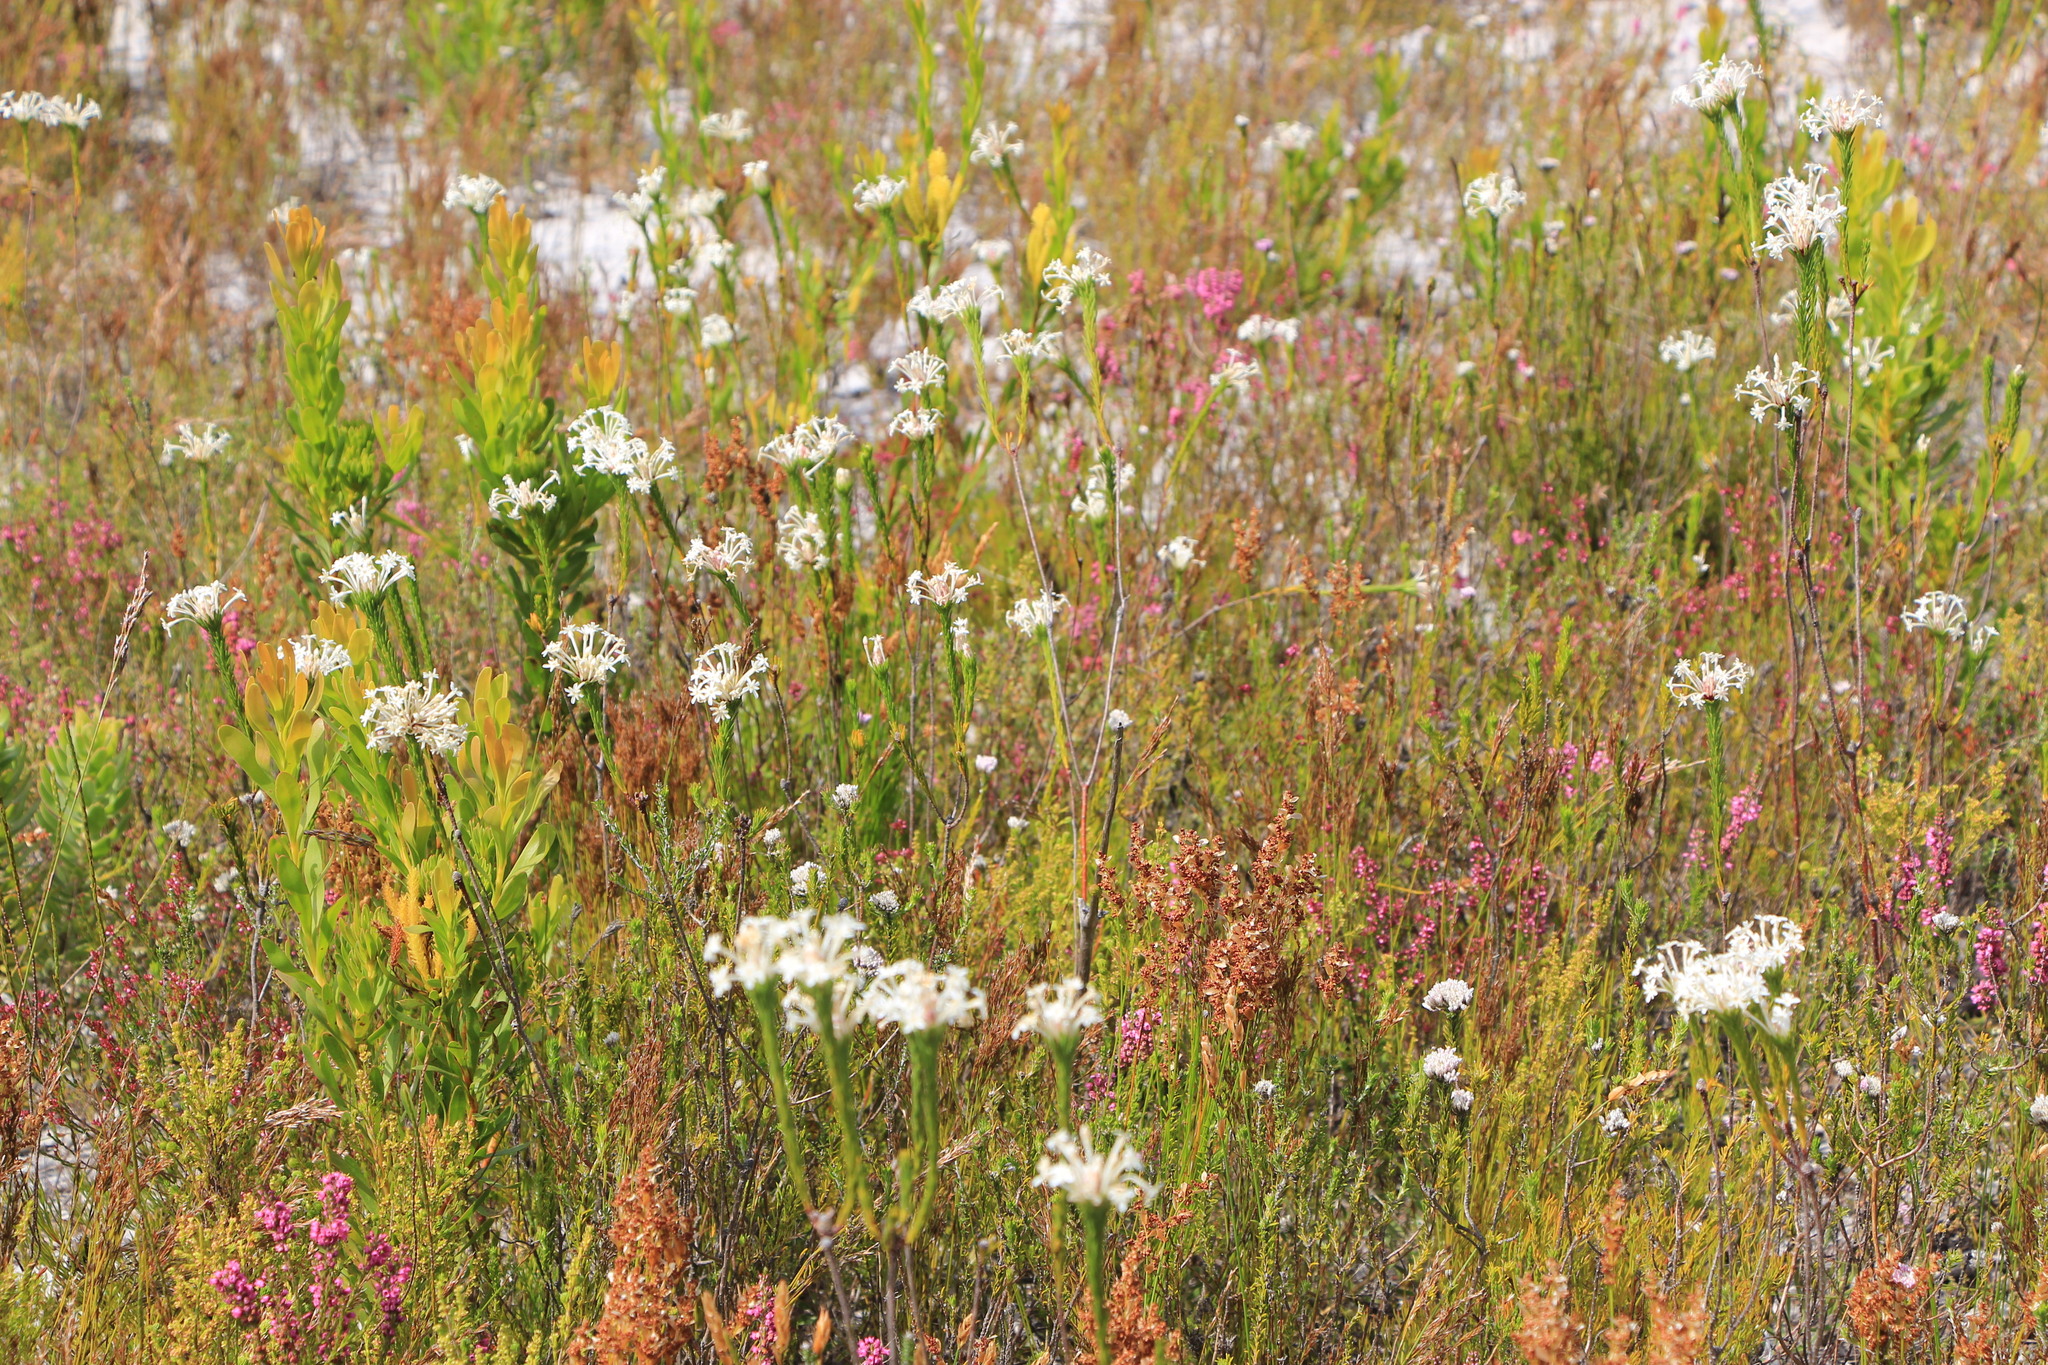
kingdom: Plantae
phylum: Tracheophyta
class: Magnoliopsida
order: Malvales
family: Thymelaeaceae
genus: Gnidia
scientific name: Gnidia pinifolia
